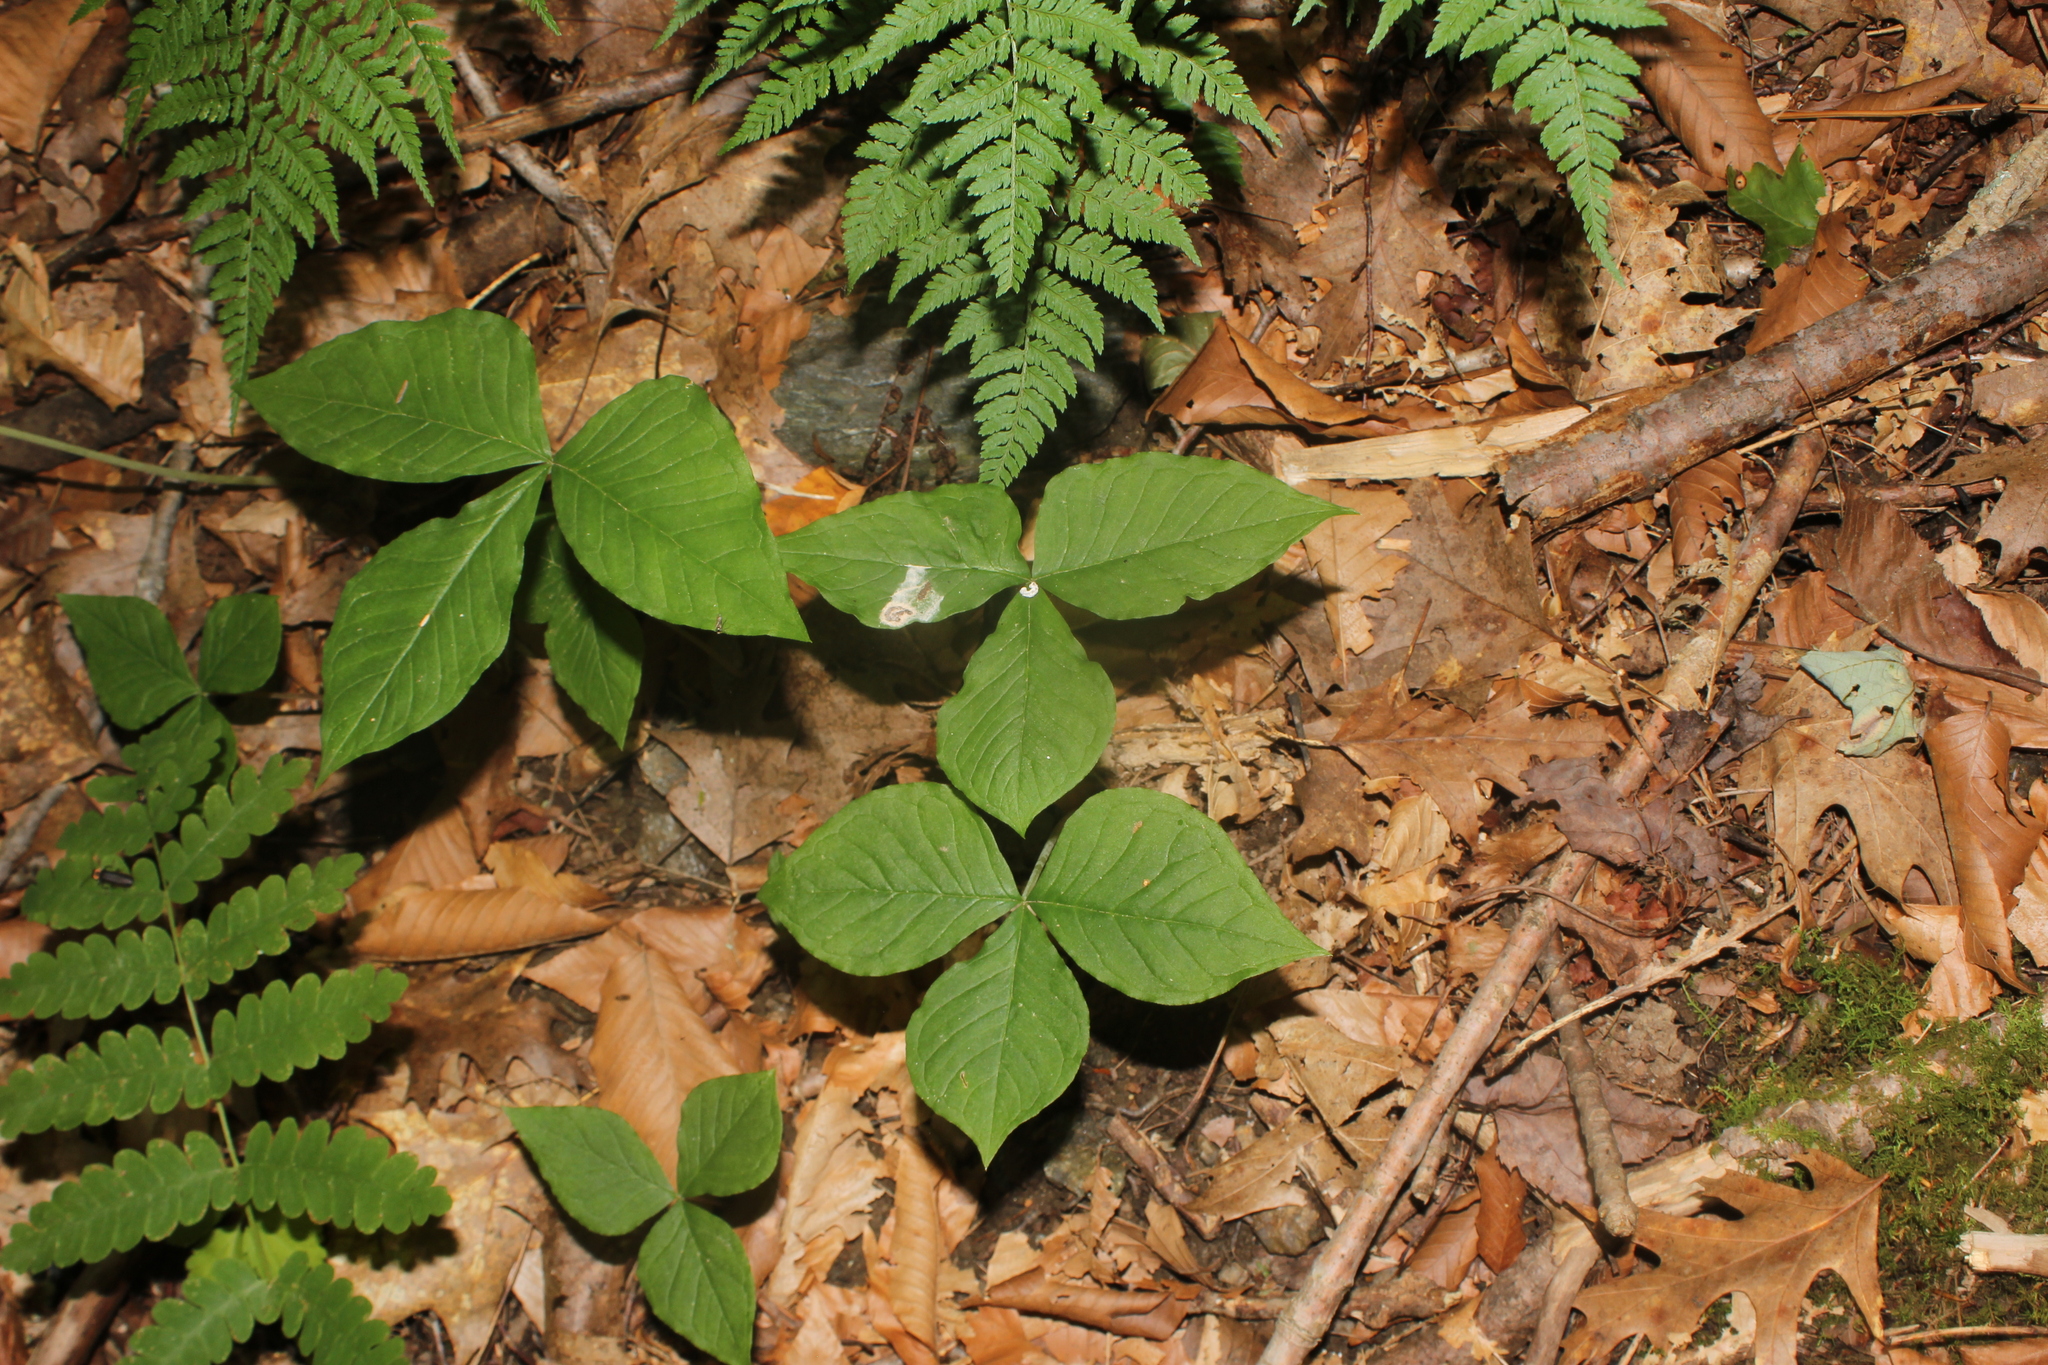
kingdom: Plantae
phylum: Tracheophyta
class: Liliopsida
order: Alismatales
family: Araceae
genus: Arisaema
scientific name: Arisaema triphyllum
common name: Jack-in-the-pulpit
